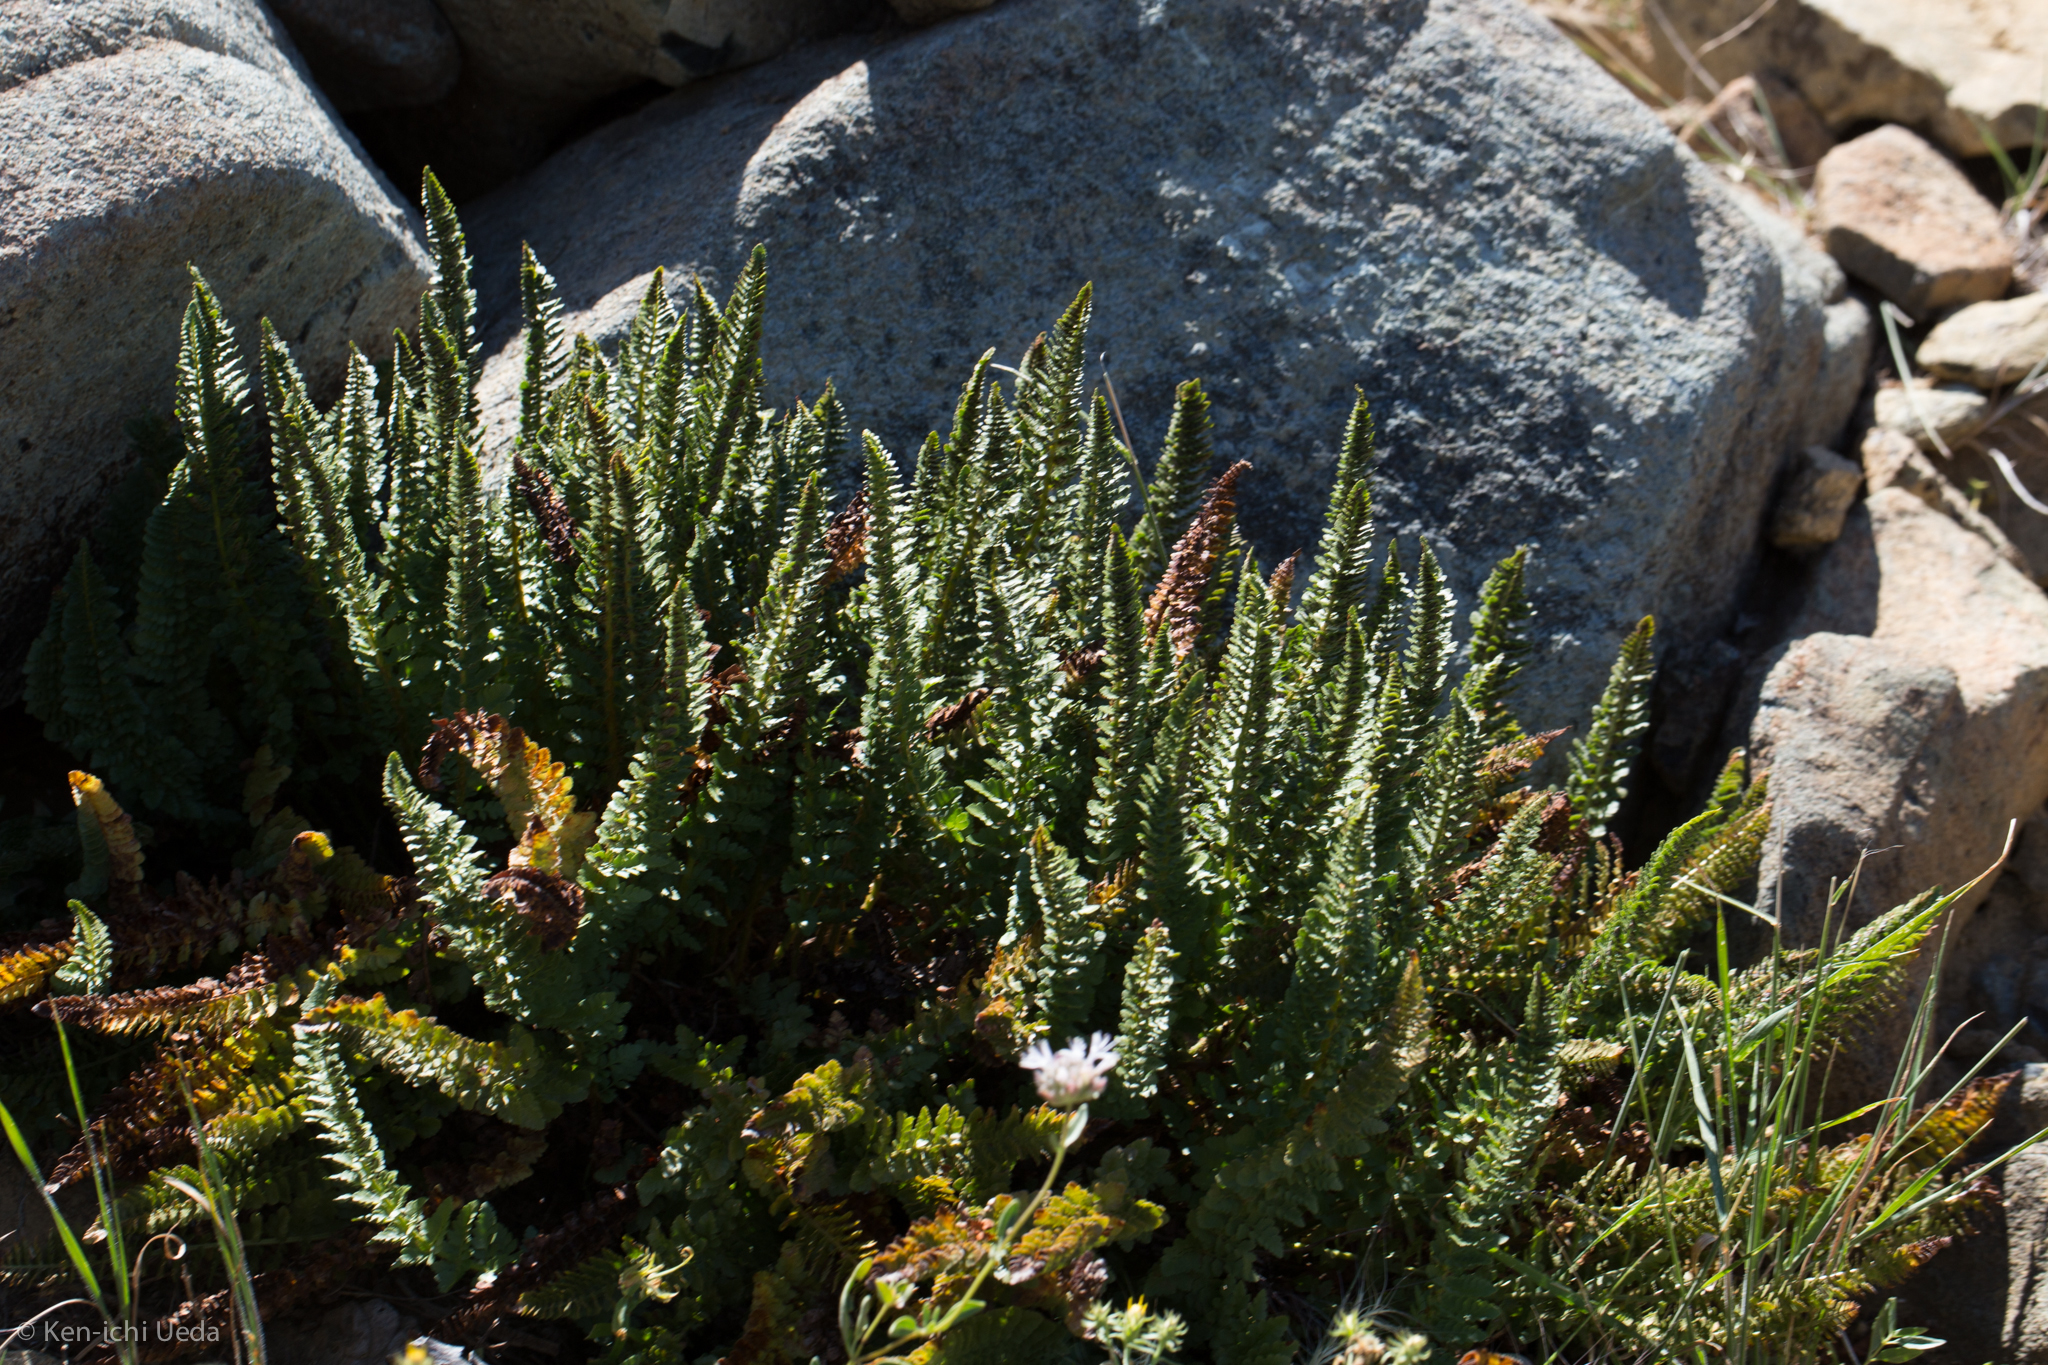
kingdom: Plantae
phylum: Tracheophyta
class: Polypodiopsida
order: Polypodiales
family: Dryopteridaceae
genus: Polystichum
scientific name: Polystichum lemmonii
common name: Lemmon's holly fern
